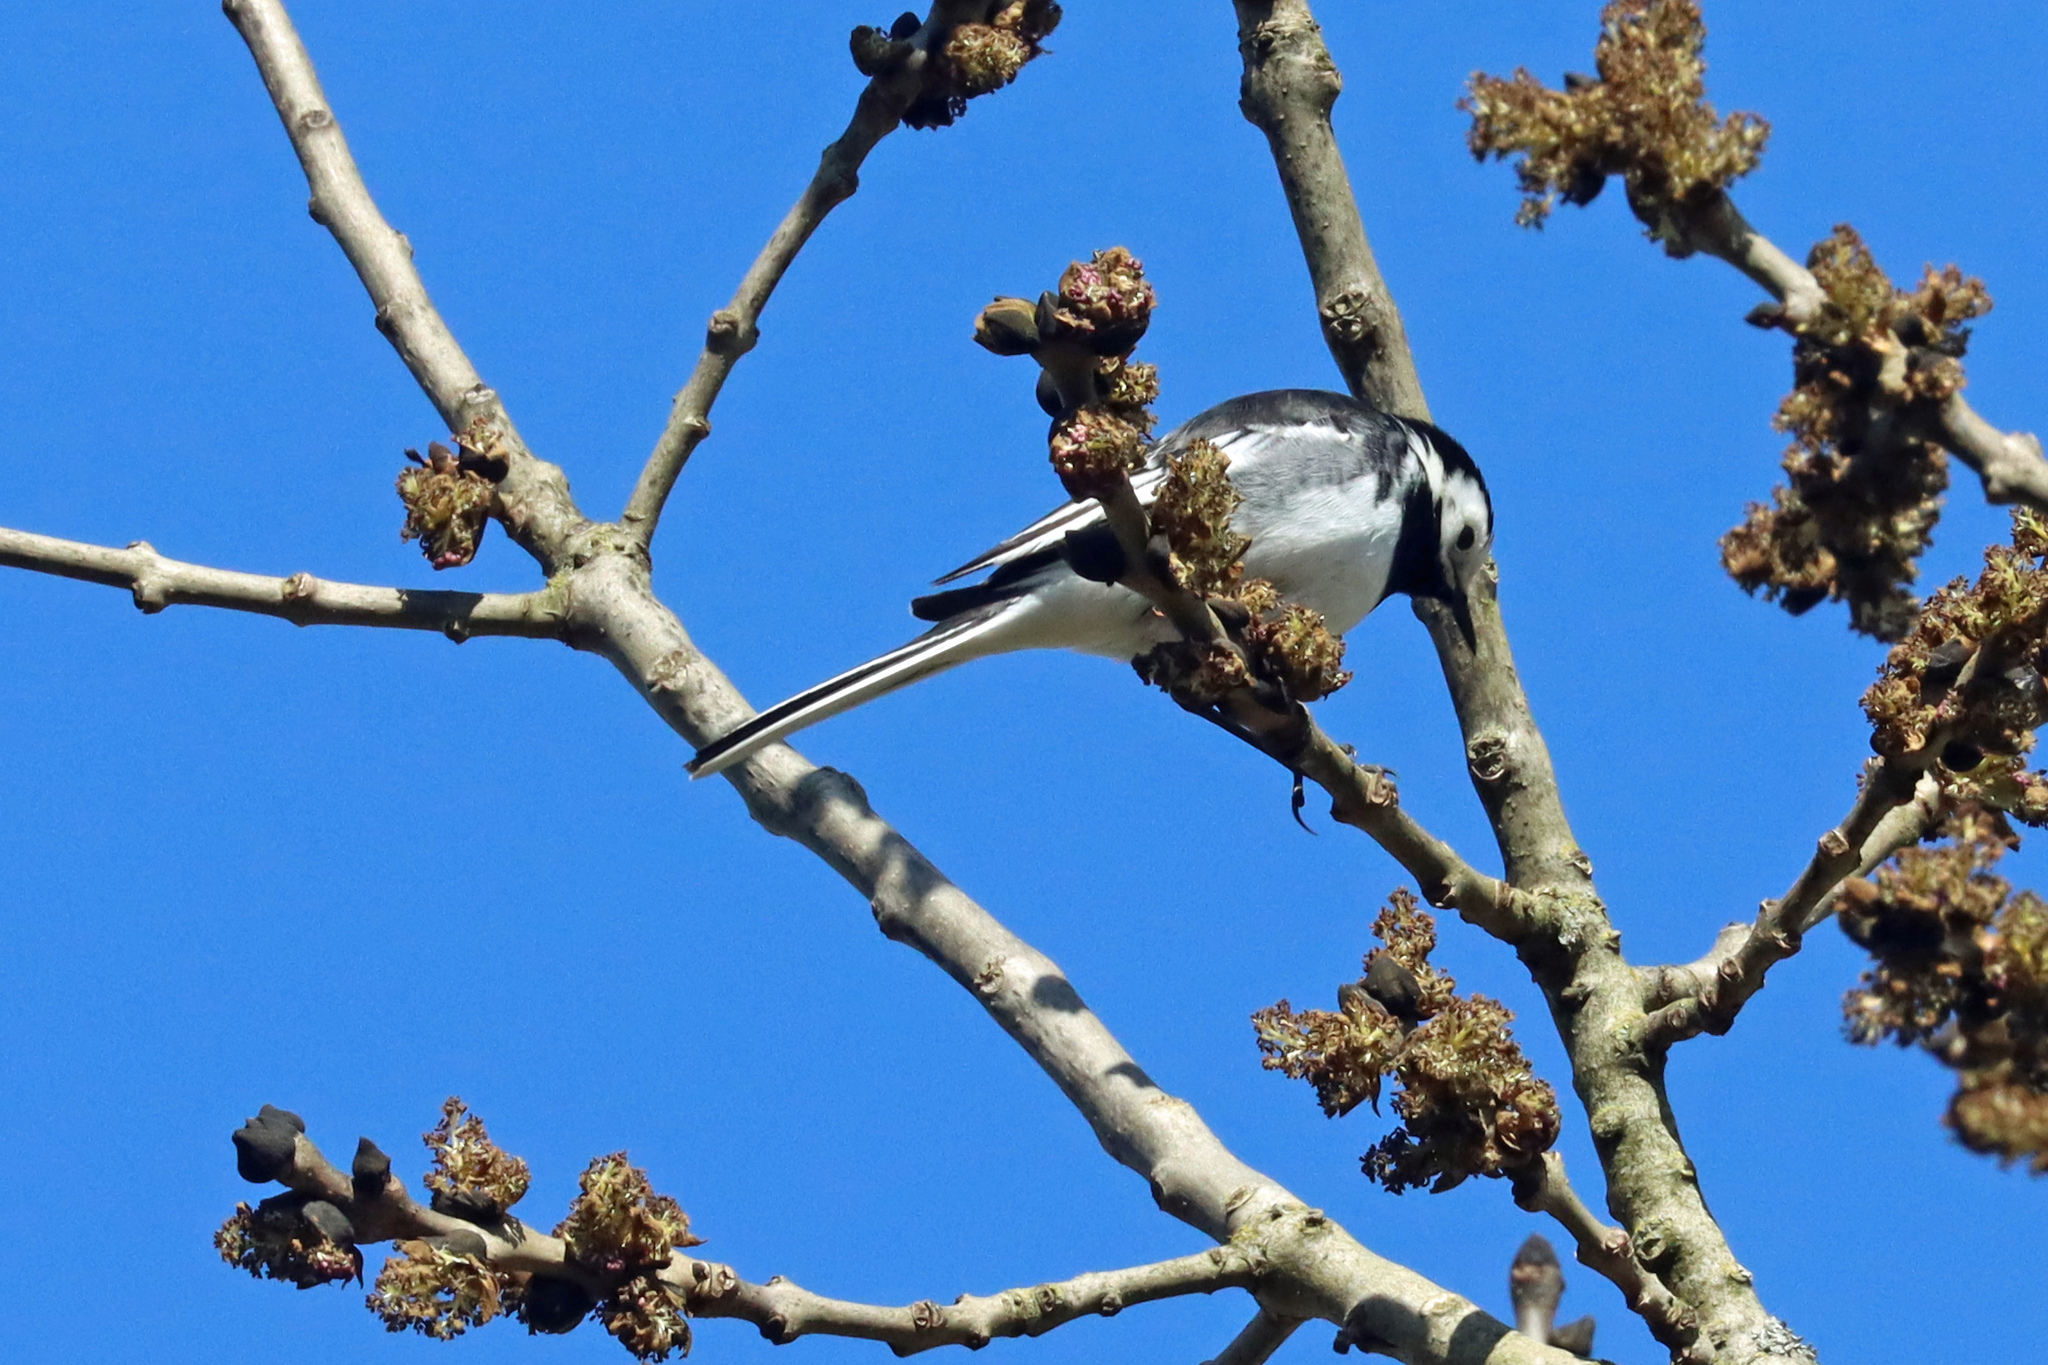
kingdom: Animalia
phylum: Chordata
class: Aves
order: Passeriformes
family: Motacillidae
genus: Motacilla
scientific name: Motacilla alba
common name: White wagtail
